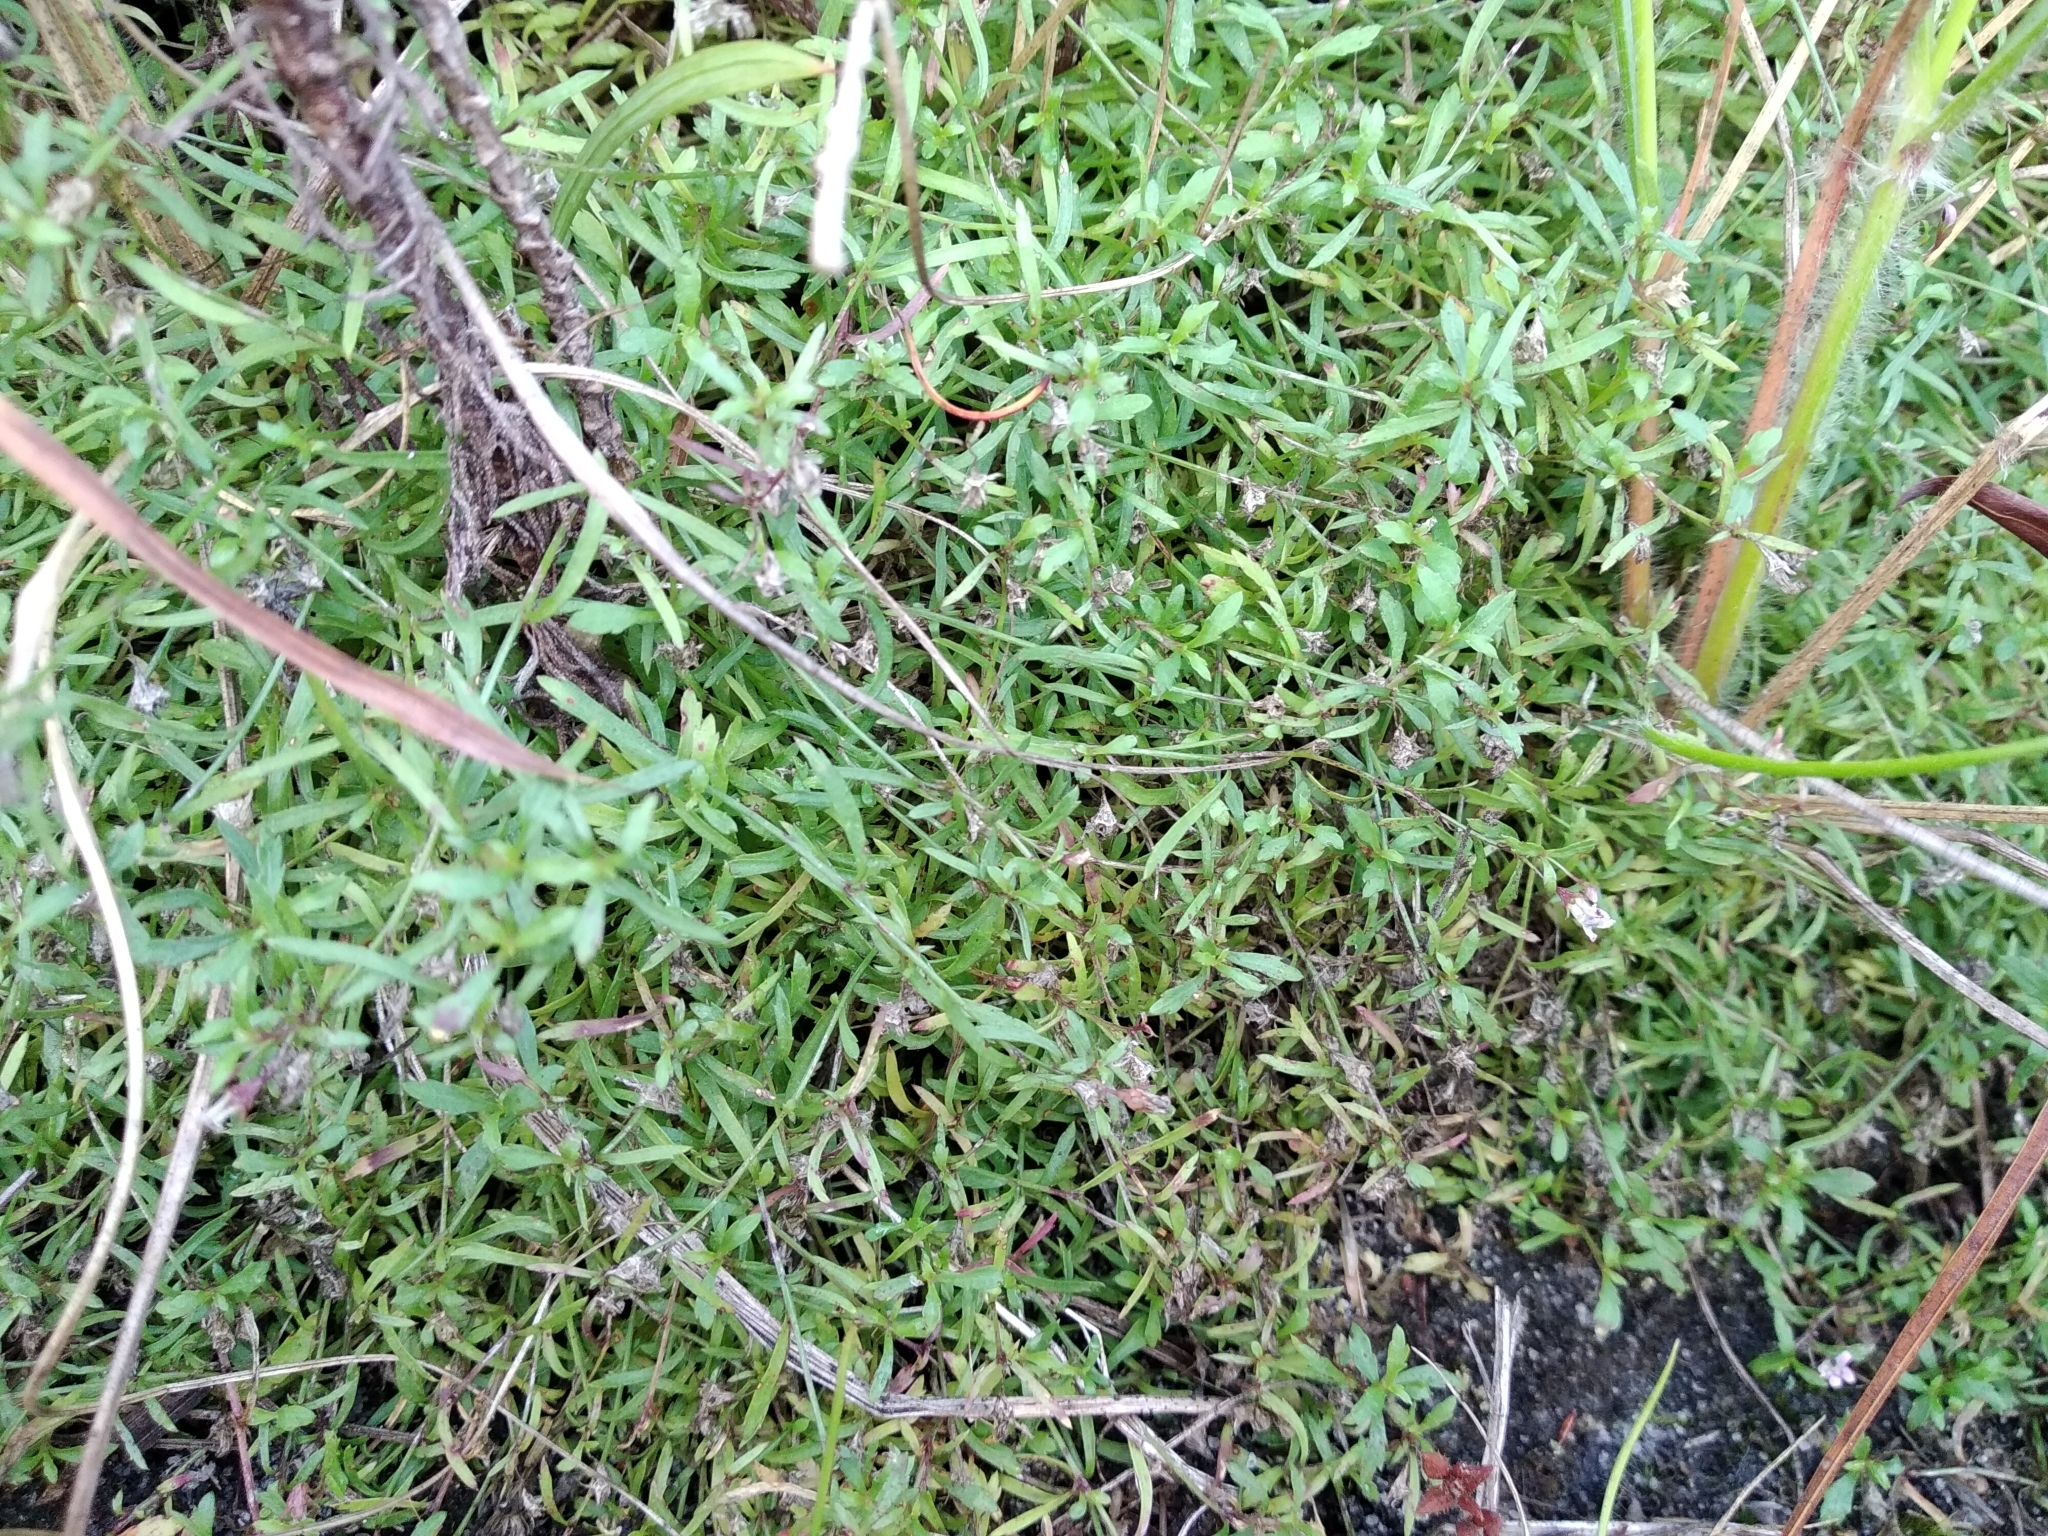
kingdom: Plantae
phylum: Tracheophyta
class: Magnoliopsida
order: Asterales
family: Campanulaceae
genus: Lobelia
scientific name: Lobelia eckloniana
